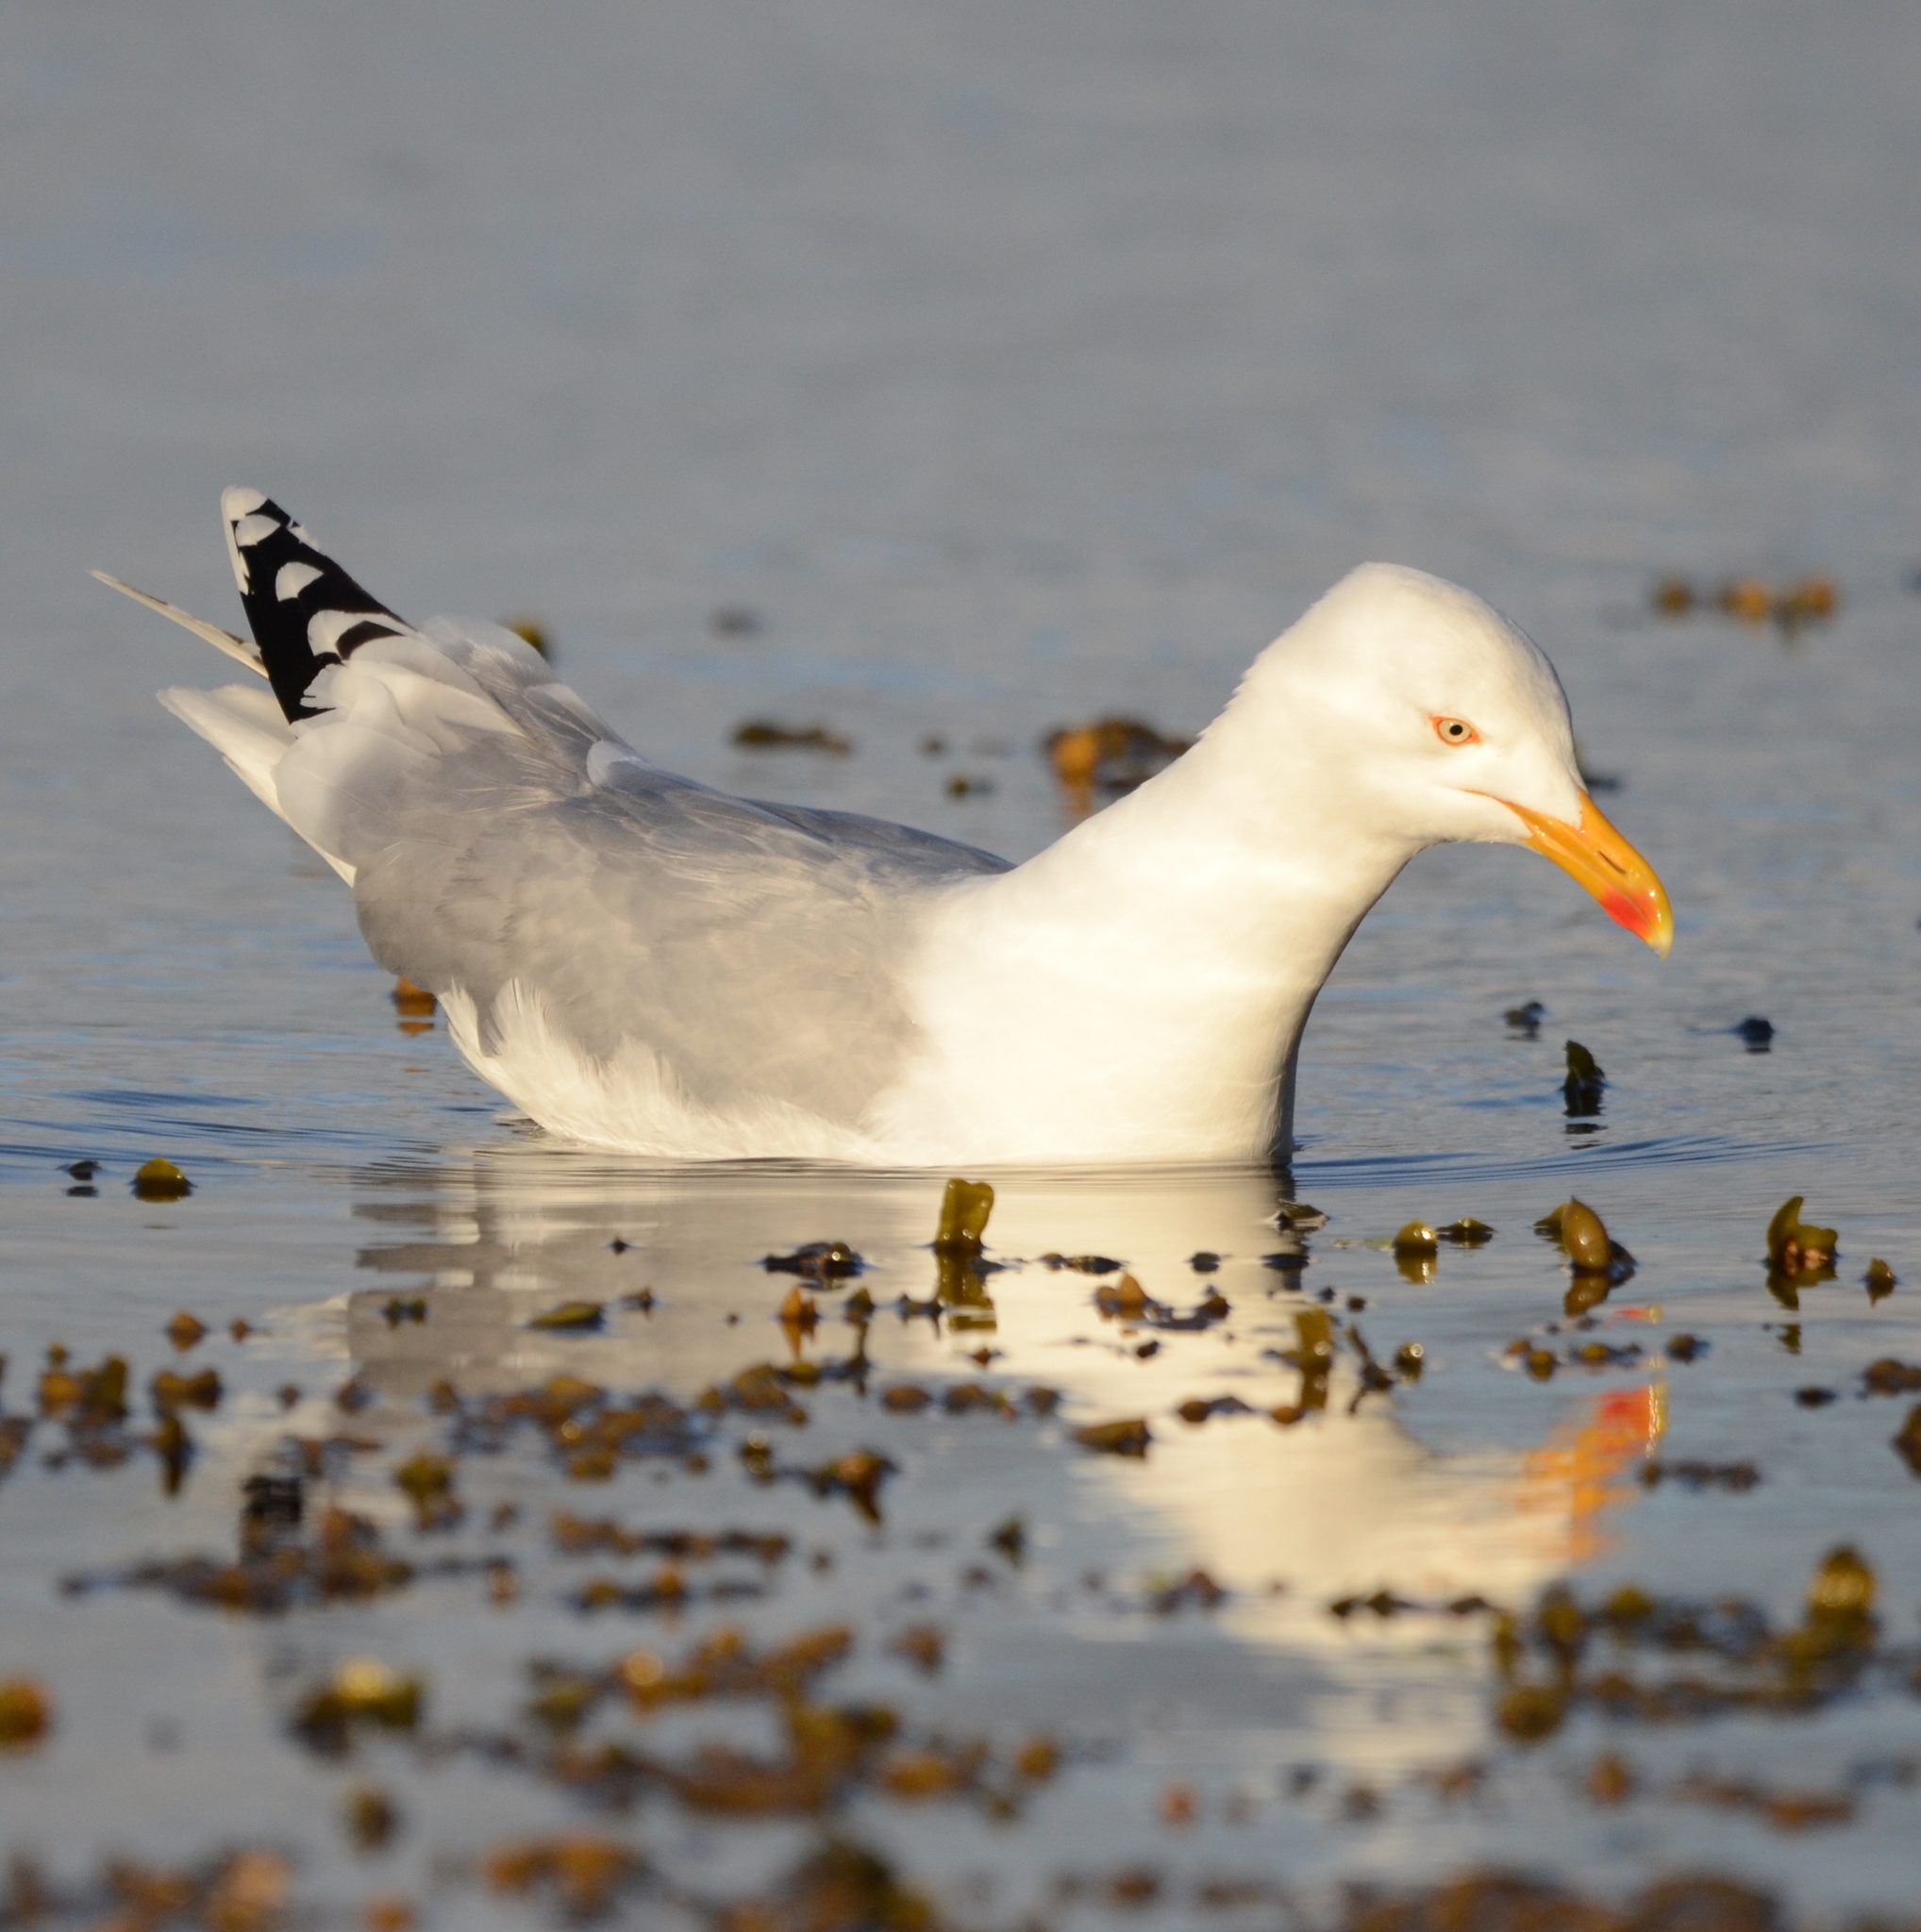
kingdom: Animalia
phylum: Chordata
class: Aves
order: Charadriiformes
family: Laridae
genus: Larus
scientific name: Larus argentatus
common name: Herring gull
